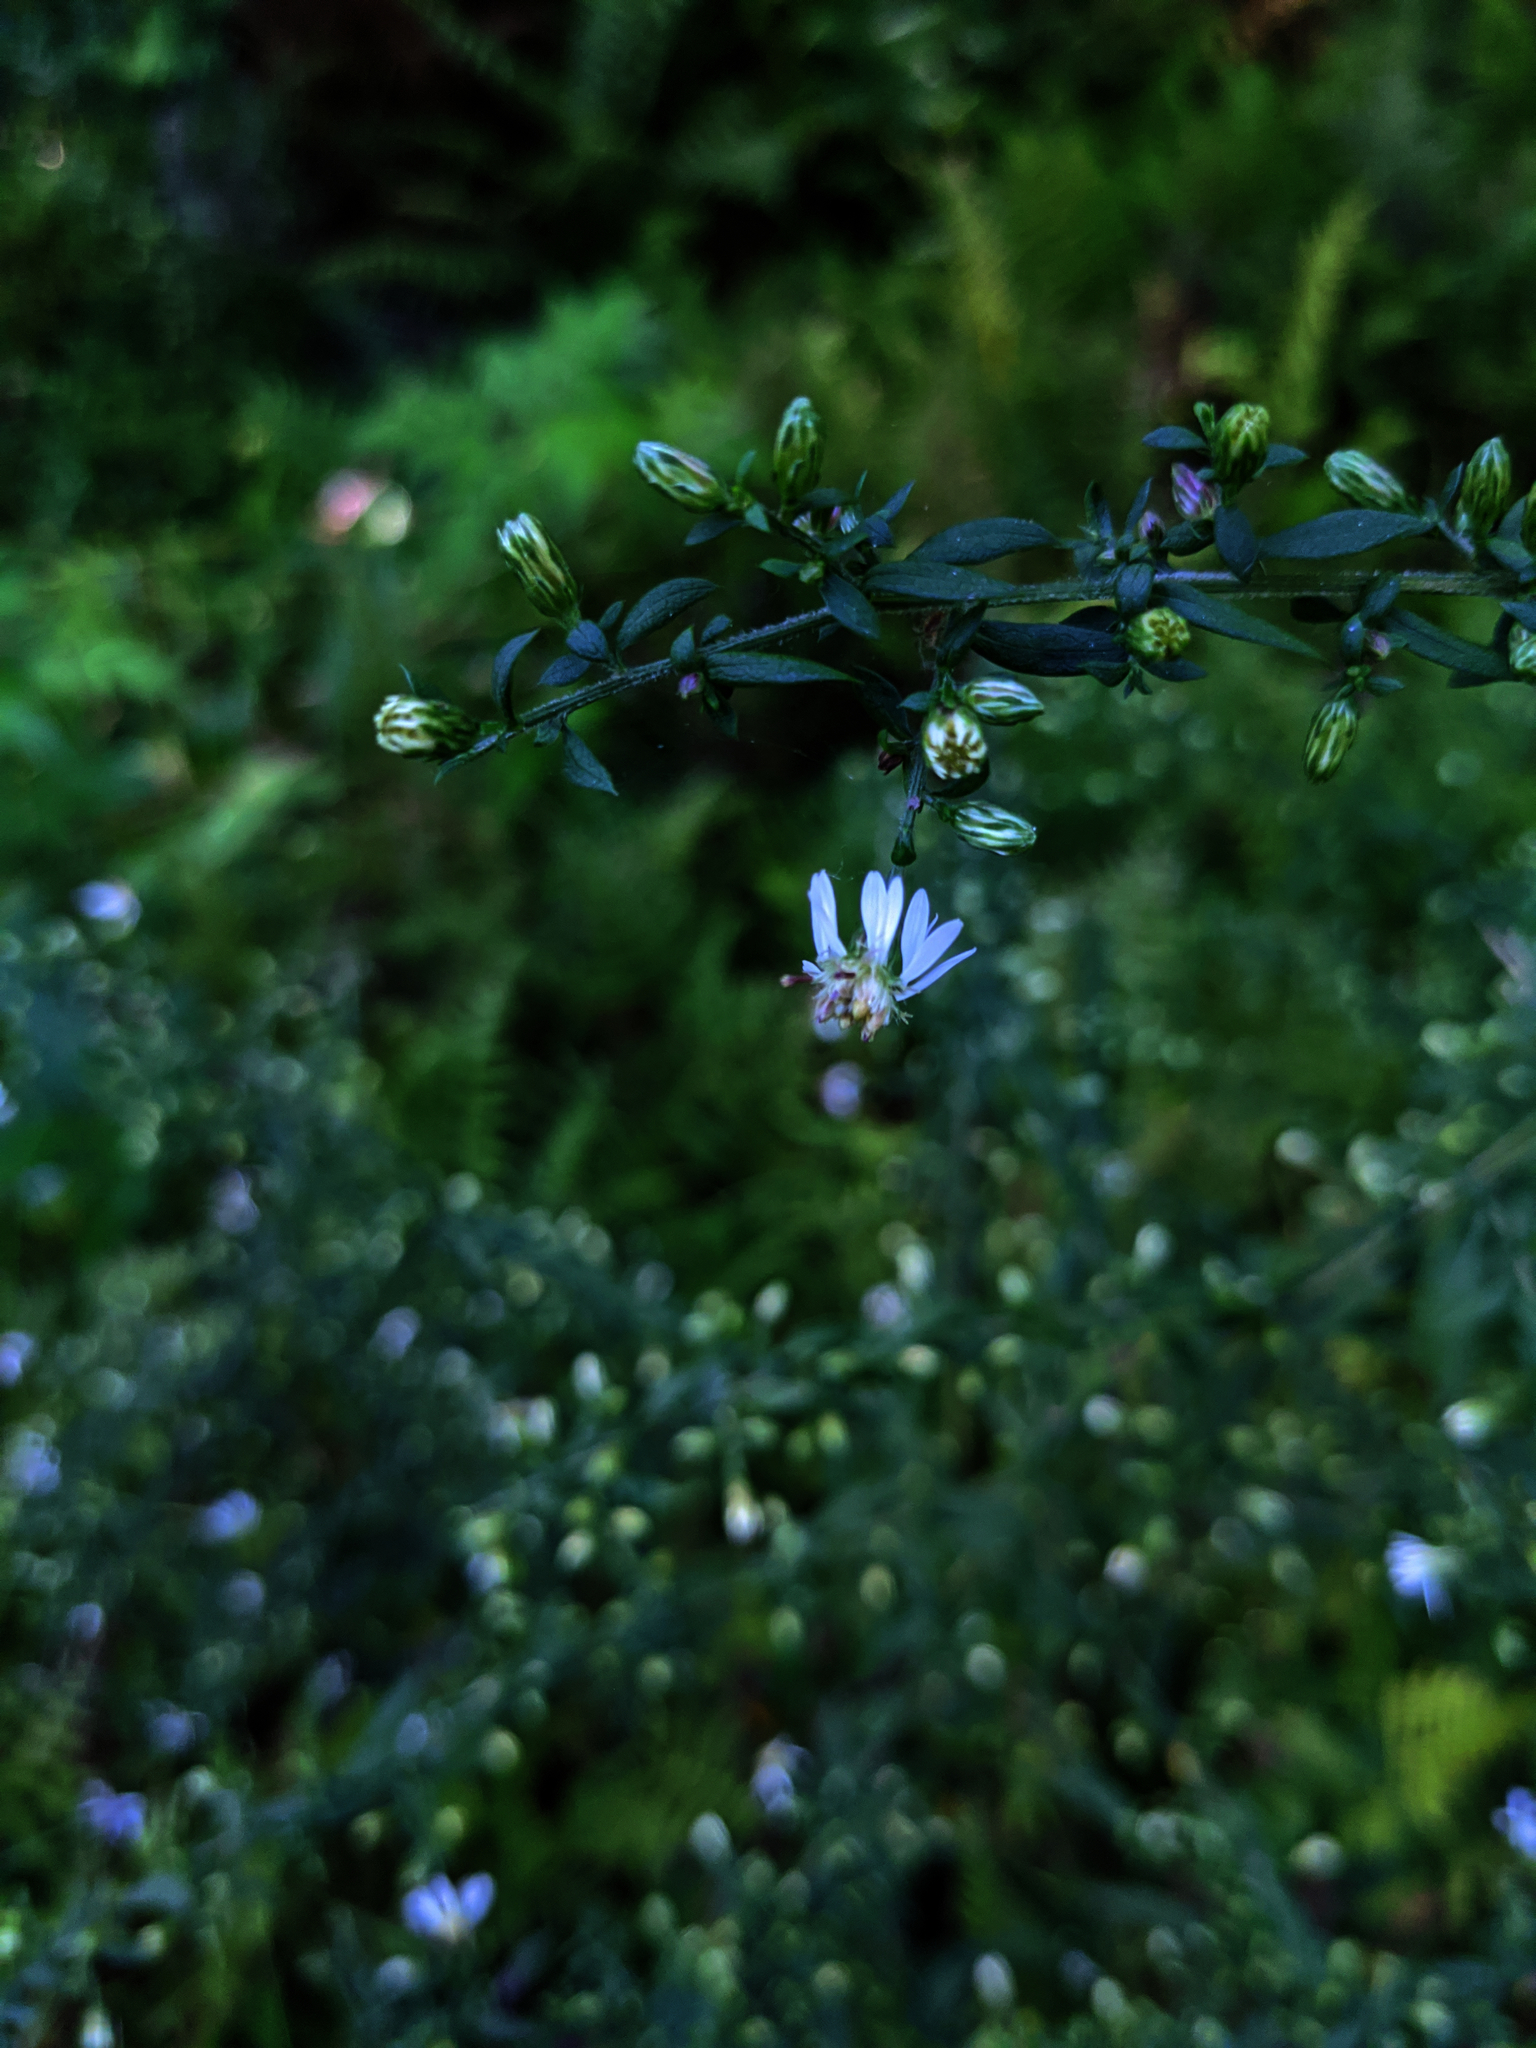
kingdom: Plantae
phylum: Tracheophyta
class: Magnoliopsida
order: Asterales
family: Asteraceae
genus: Symphyotrichum
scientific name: Symphyotrichum lateriflorum
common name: Calico aster
